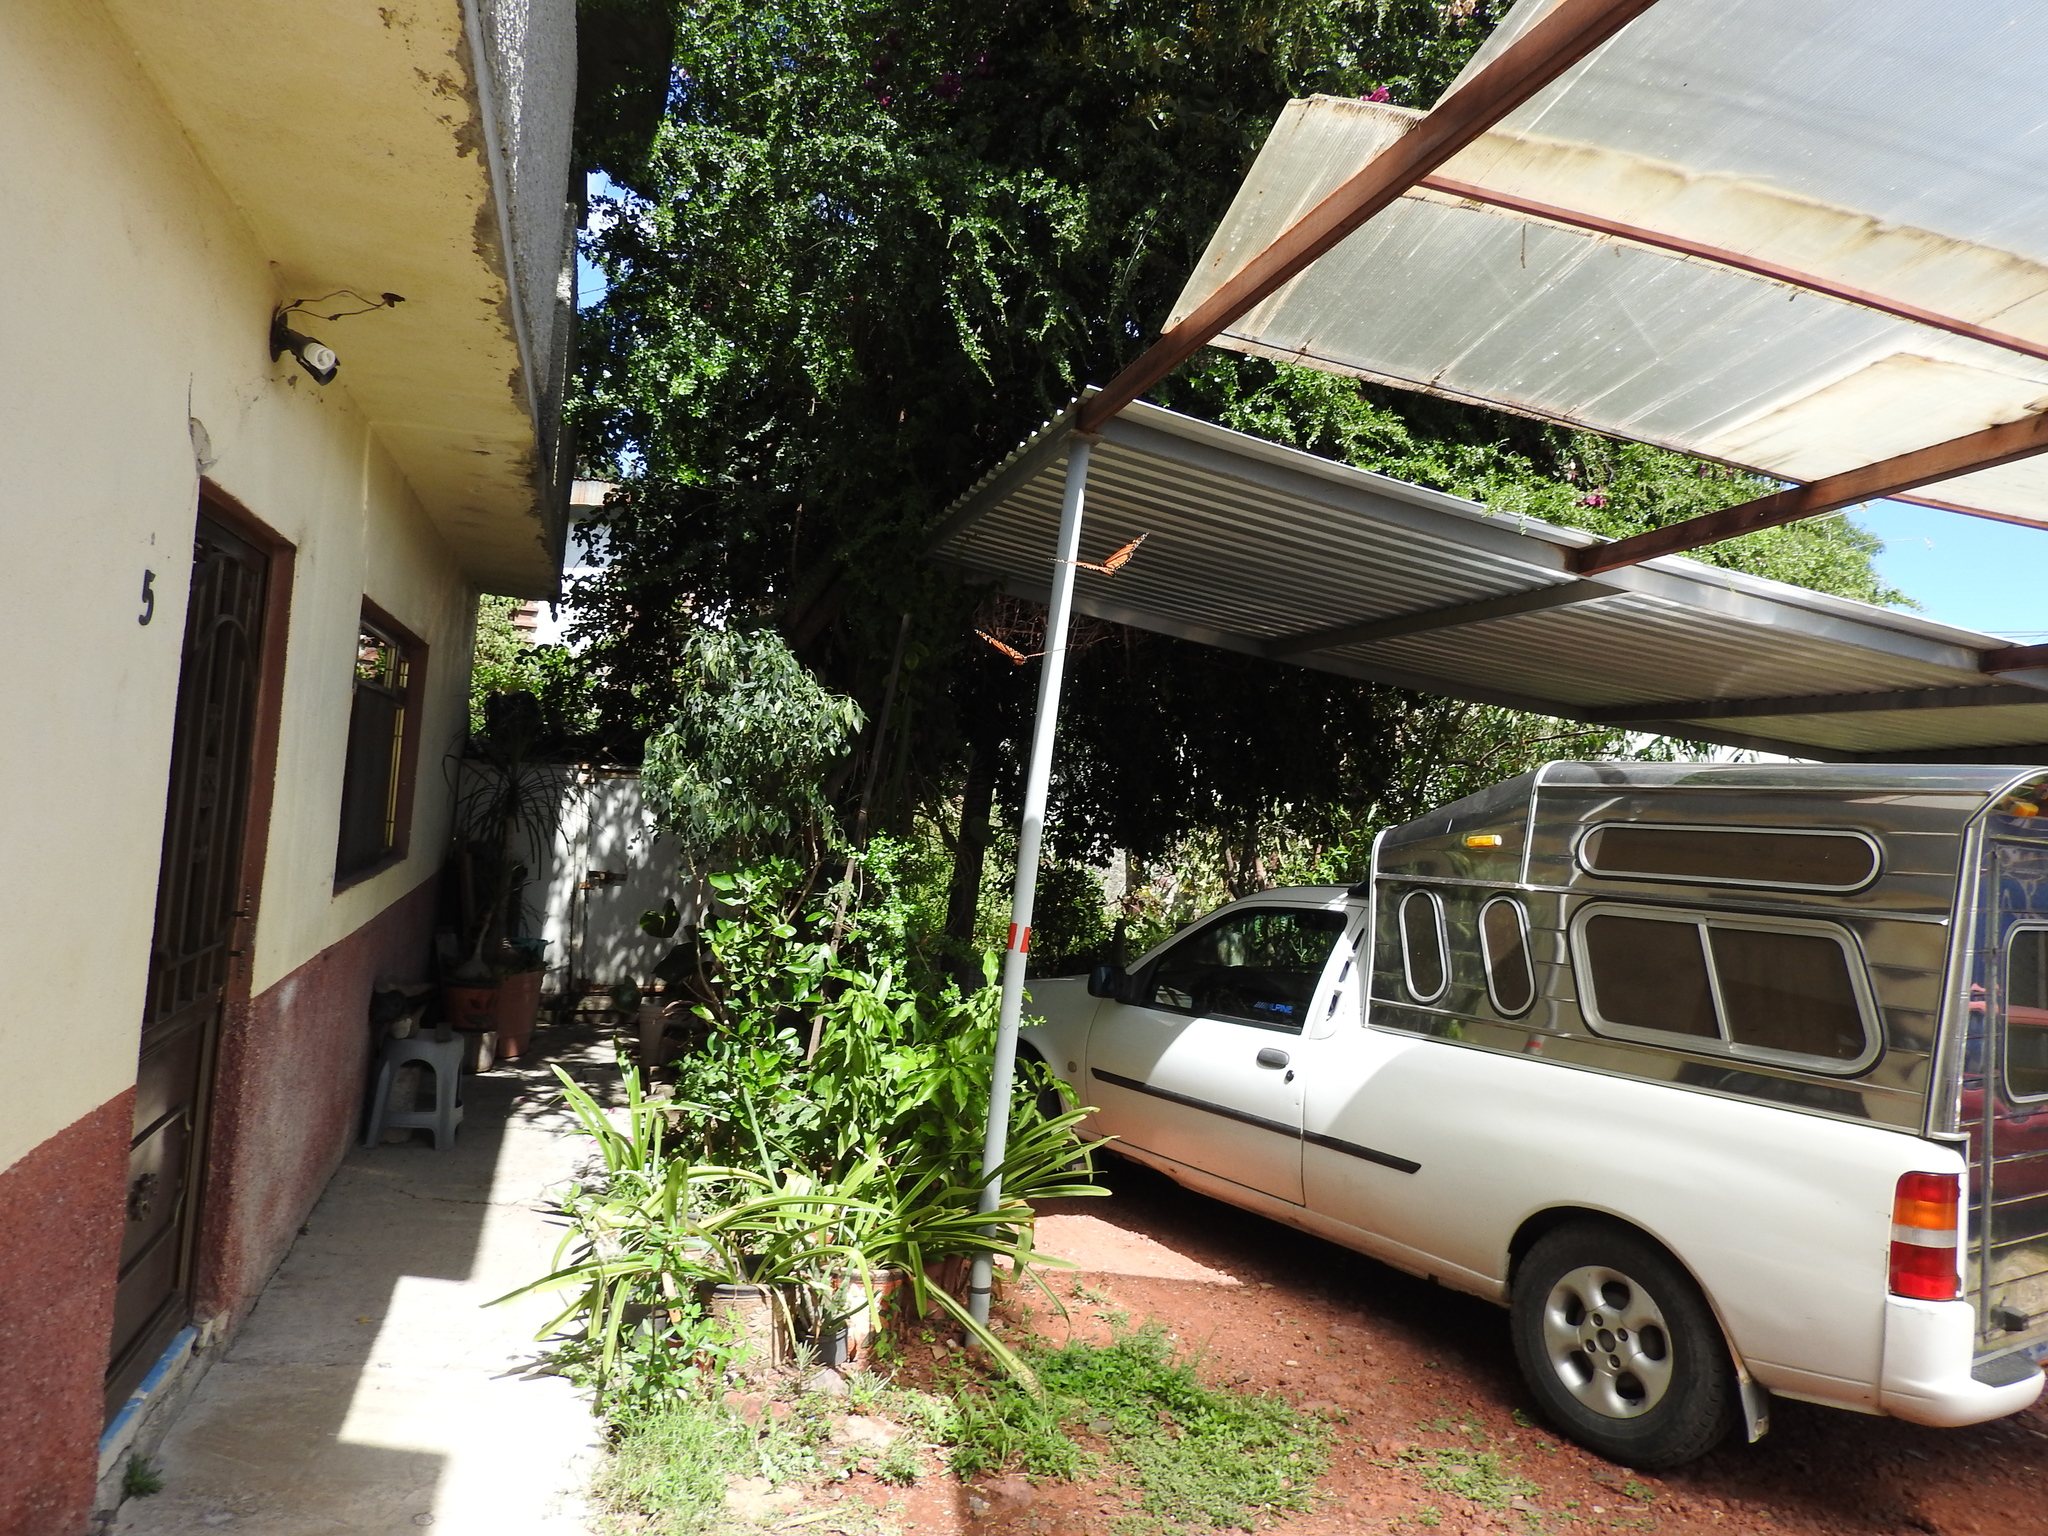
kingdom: Animalia
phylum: Arthropoda
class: Insecta
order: Lepidoptera
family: Nymphalidae
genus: Danaus
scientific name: Danaus plexippus
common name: Monarch
